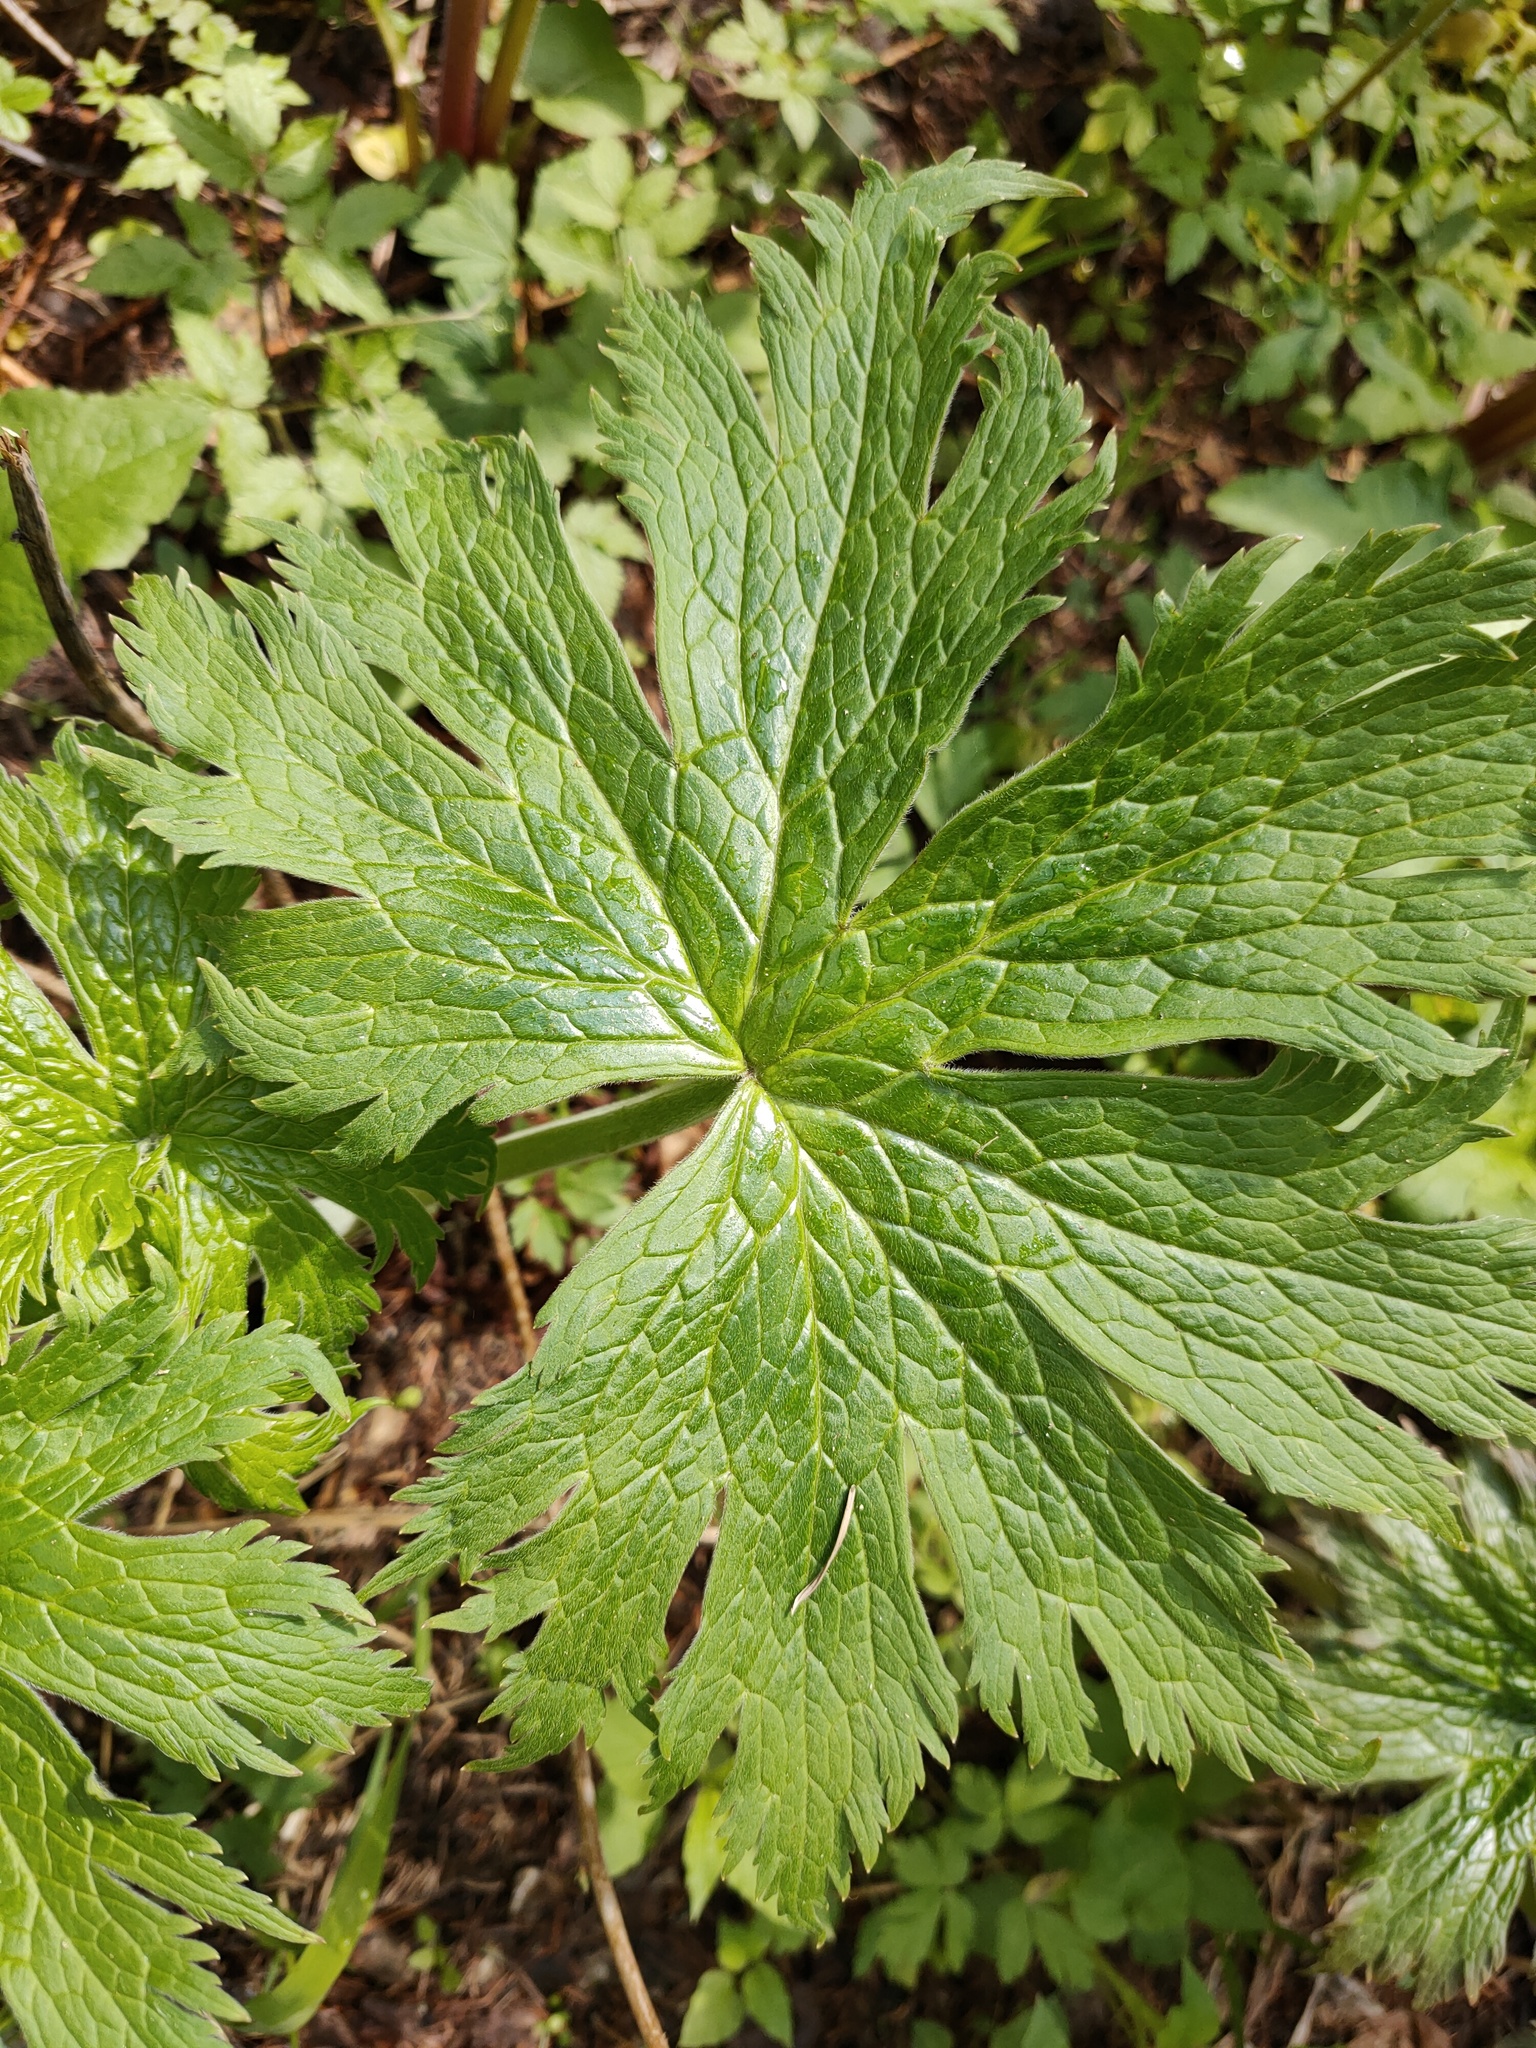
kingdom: Plantae
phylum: Tracheophyta
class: Magnoliopsida
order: Ranunculales
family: Ranunculaceae
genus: Aconitum
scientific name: Aconitum septentrionale
